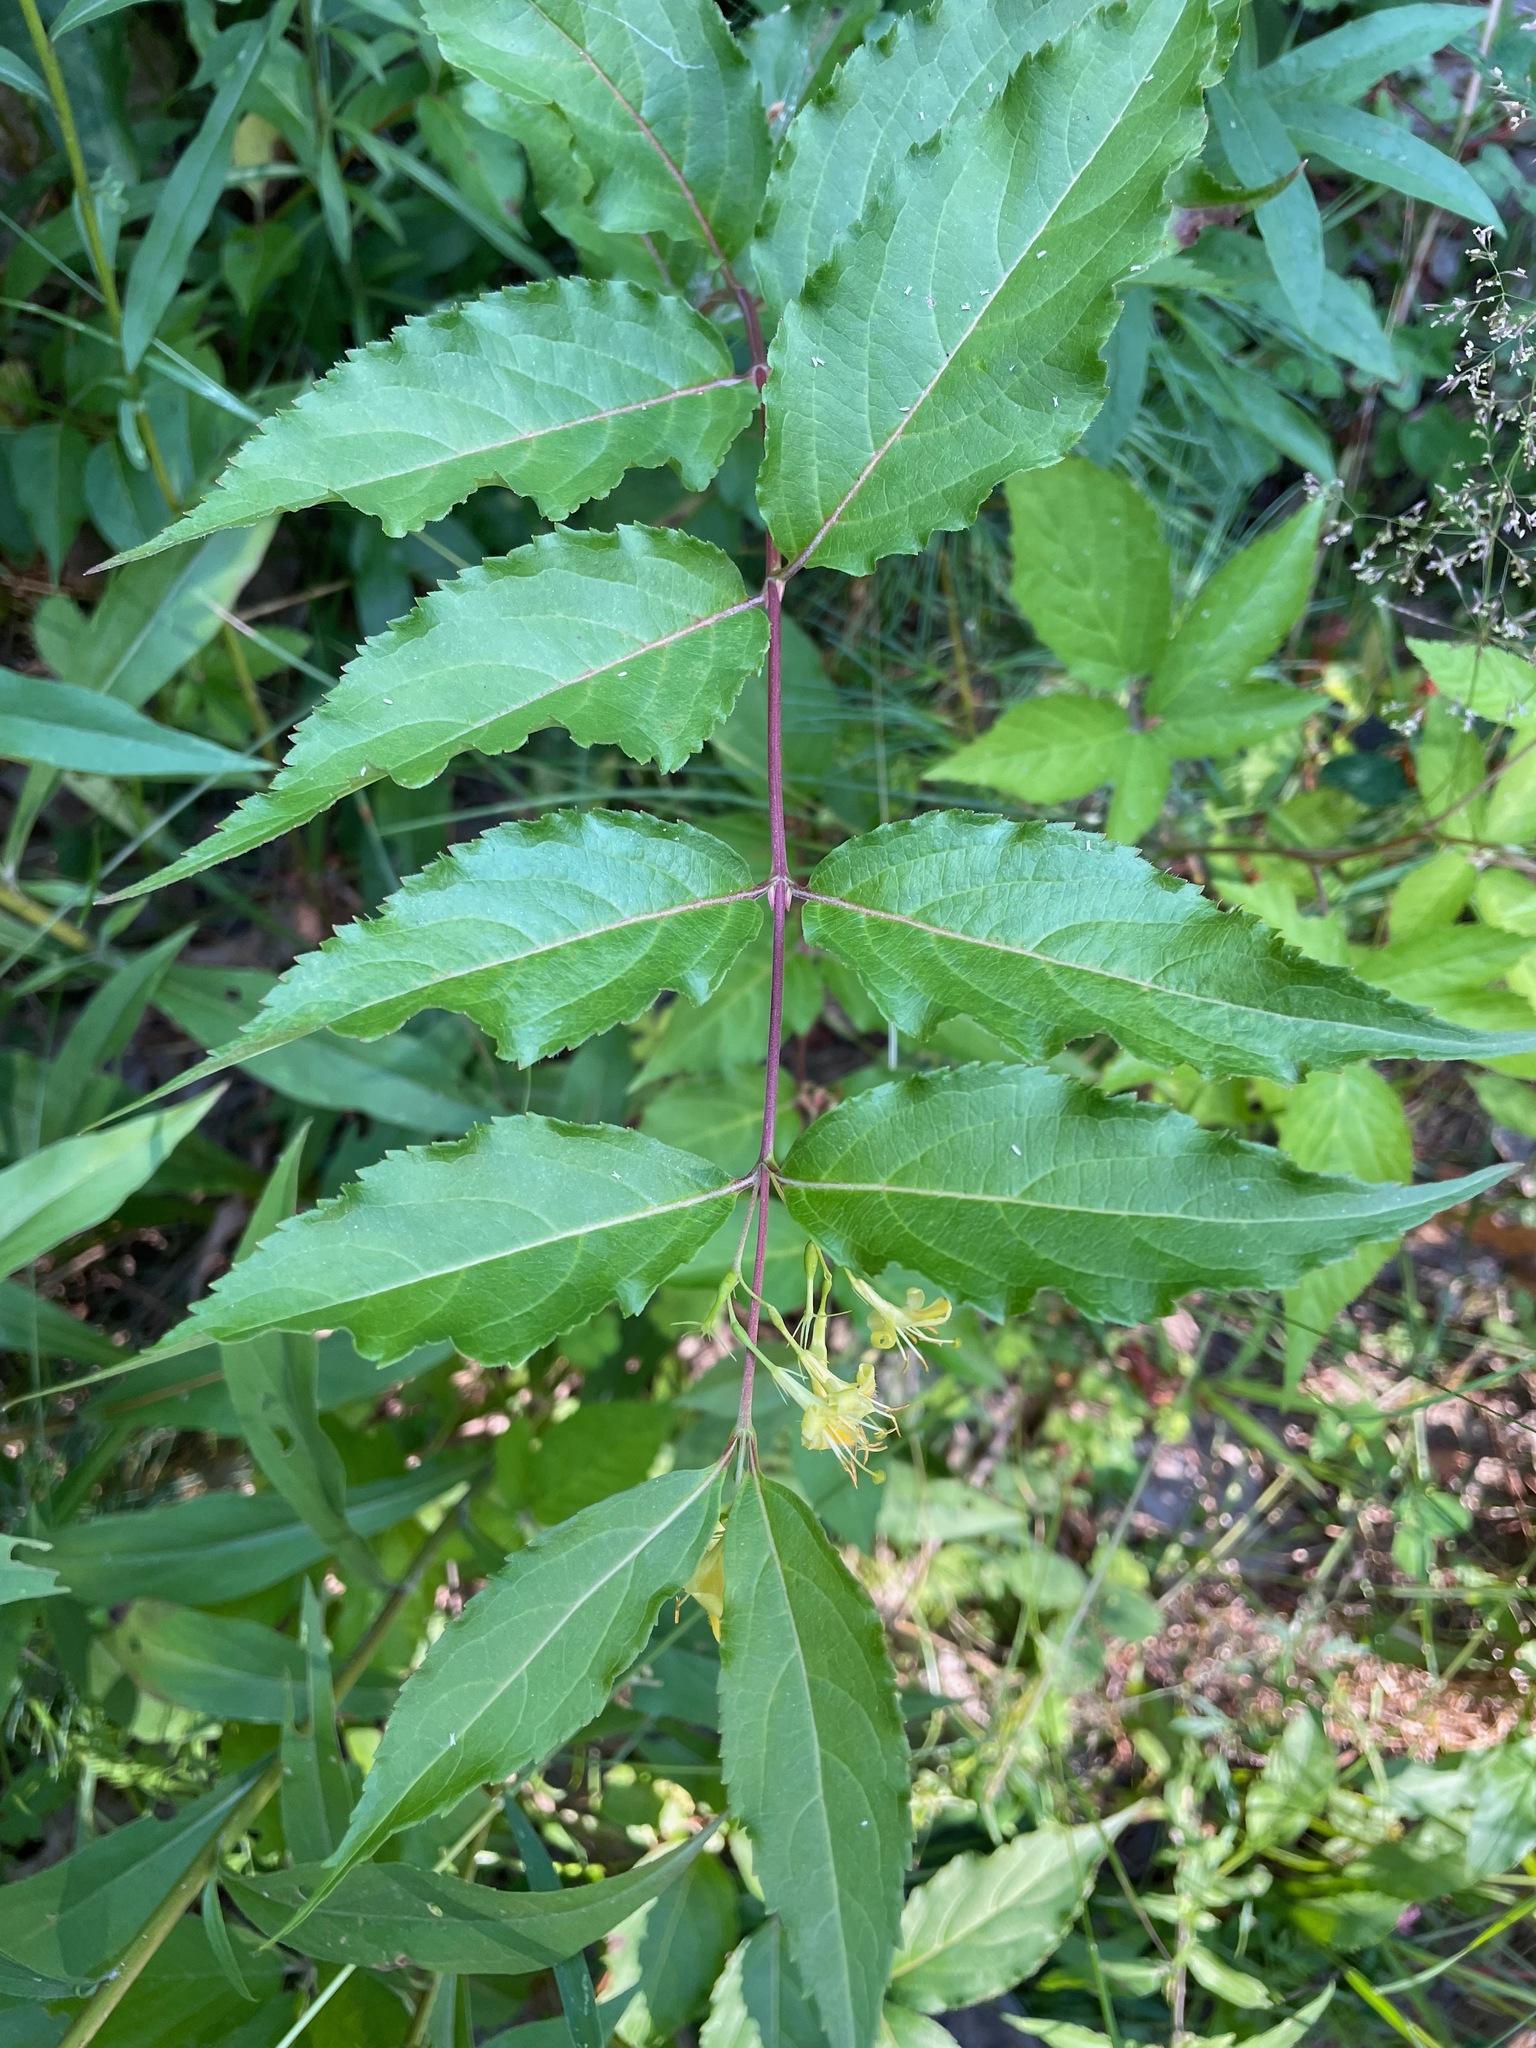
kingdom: Plantae
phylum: Tracheophyta
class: Magnoliopsida
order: Dipsacales
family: Caprifoliaceae
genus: Diervilla
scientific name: Diervilla lonicera
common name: Bush-honeysuckle
